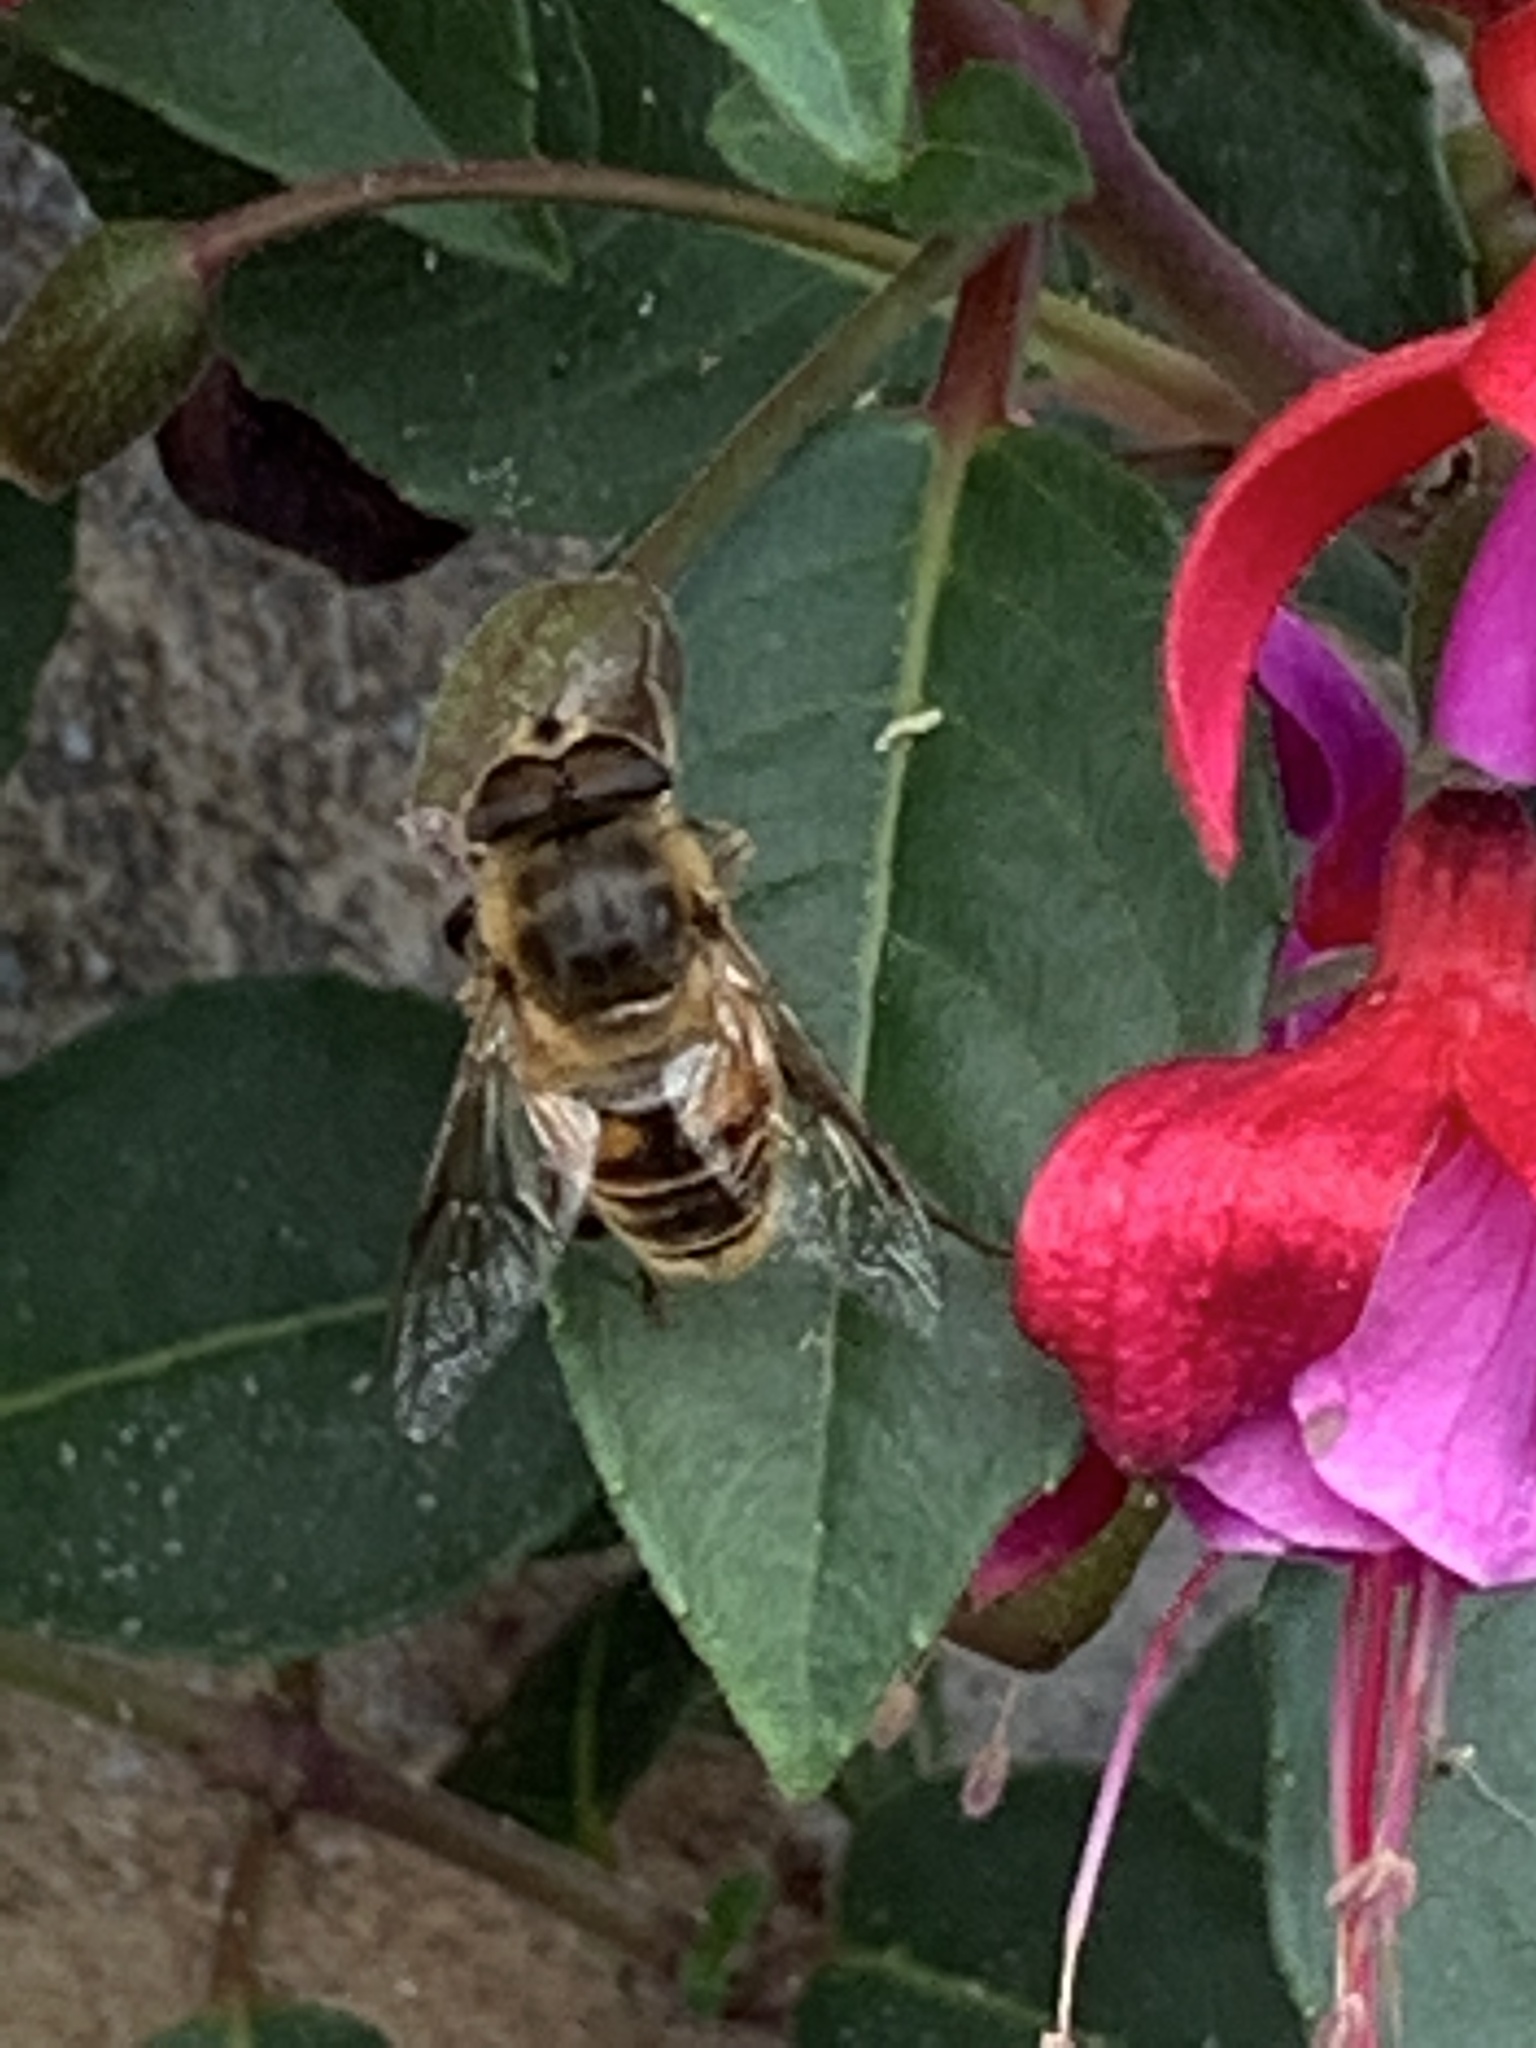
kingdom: Animalia
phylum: Arthropoda
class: Insecta
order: Diptera
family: Syrphidae
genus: Eristalis
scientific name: Eristalis tenax
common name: Drone fly
